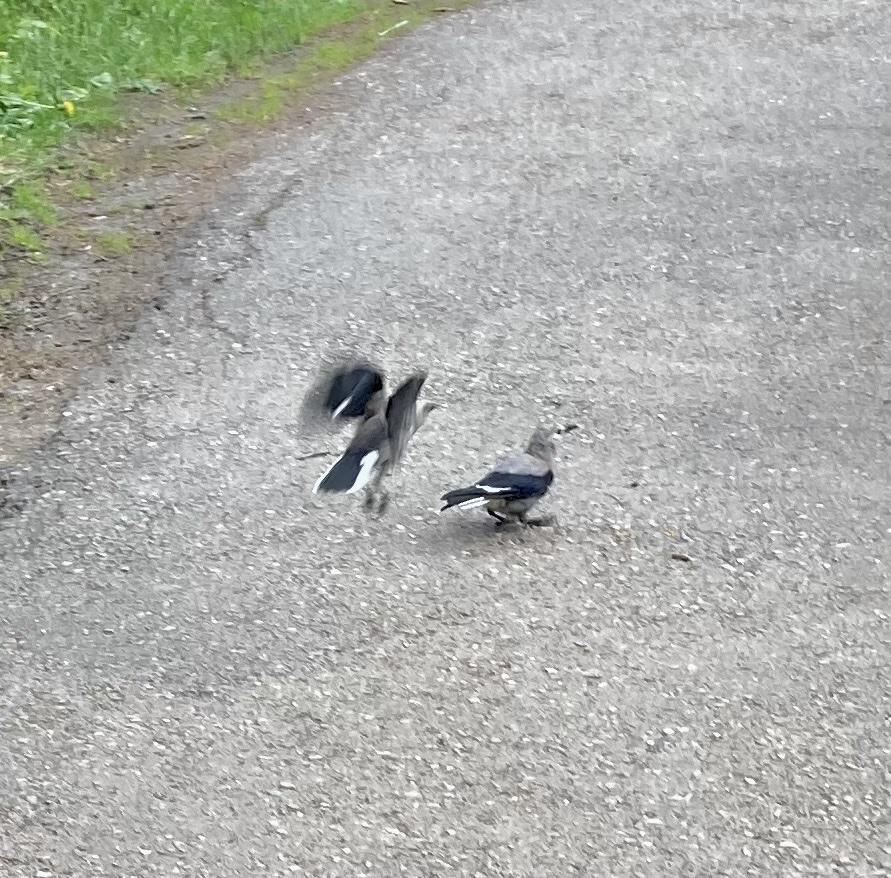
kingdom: Animalia
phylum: Chordata
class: Aves
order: Passeriformes
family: Corvidae
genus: Nucifraga
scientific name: Nucifraga columbiana
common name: Clark's nutcracker
